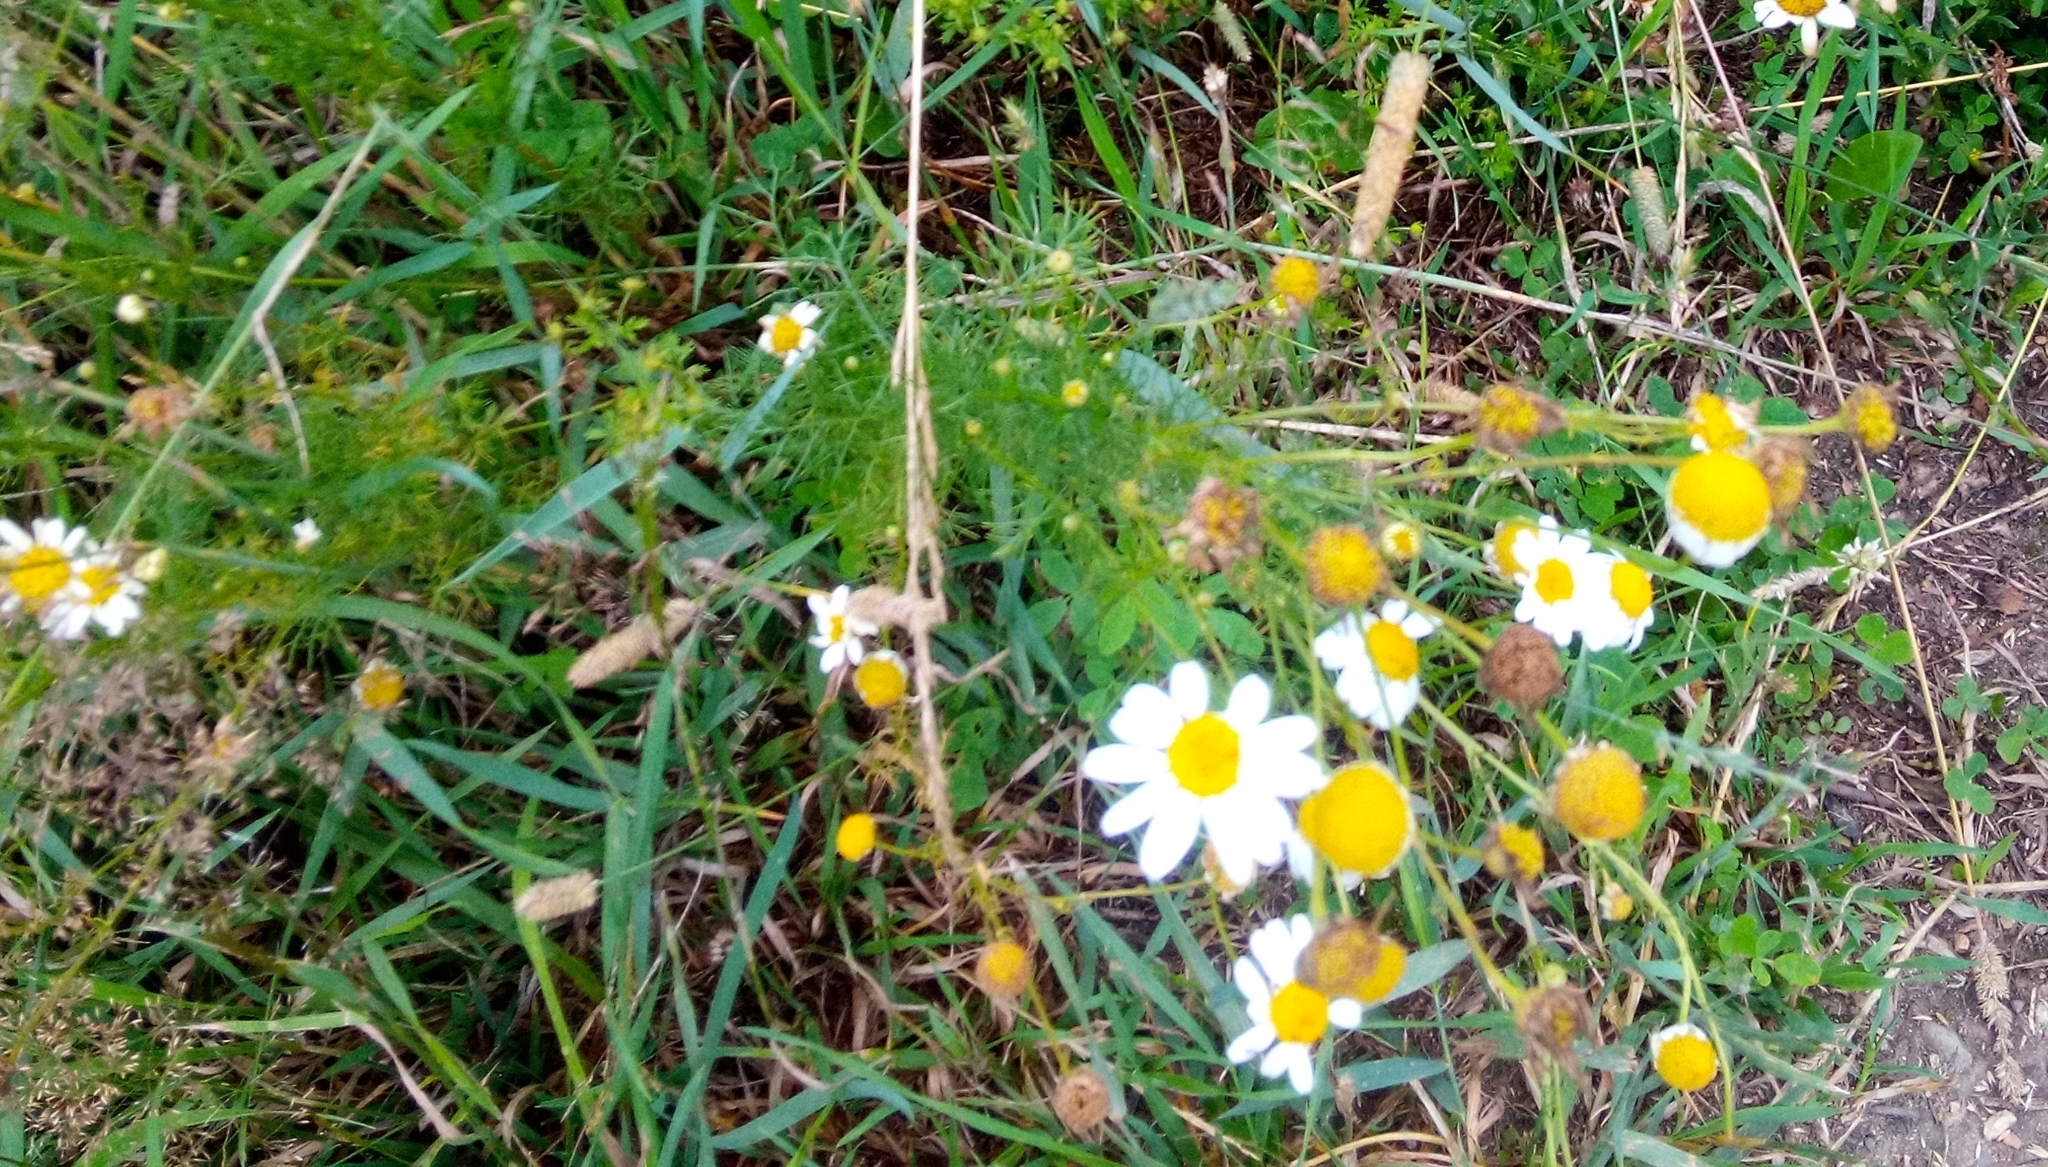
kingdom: Plantae
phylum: Tracheophyta
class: Magnoliopsida
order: Asterales
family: Asteraceae
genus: Tripleurospermum
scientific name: Tripleurospermum inodorum
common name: Scentless mayweed
